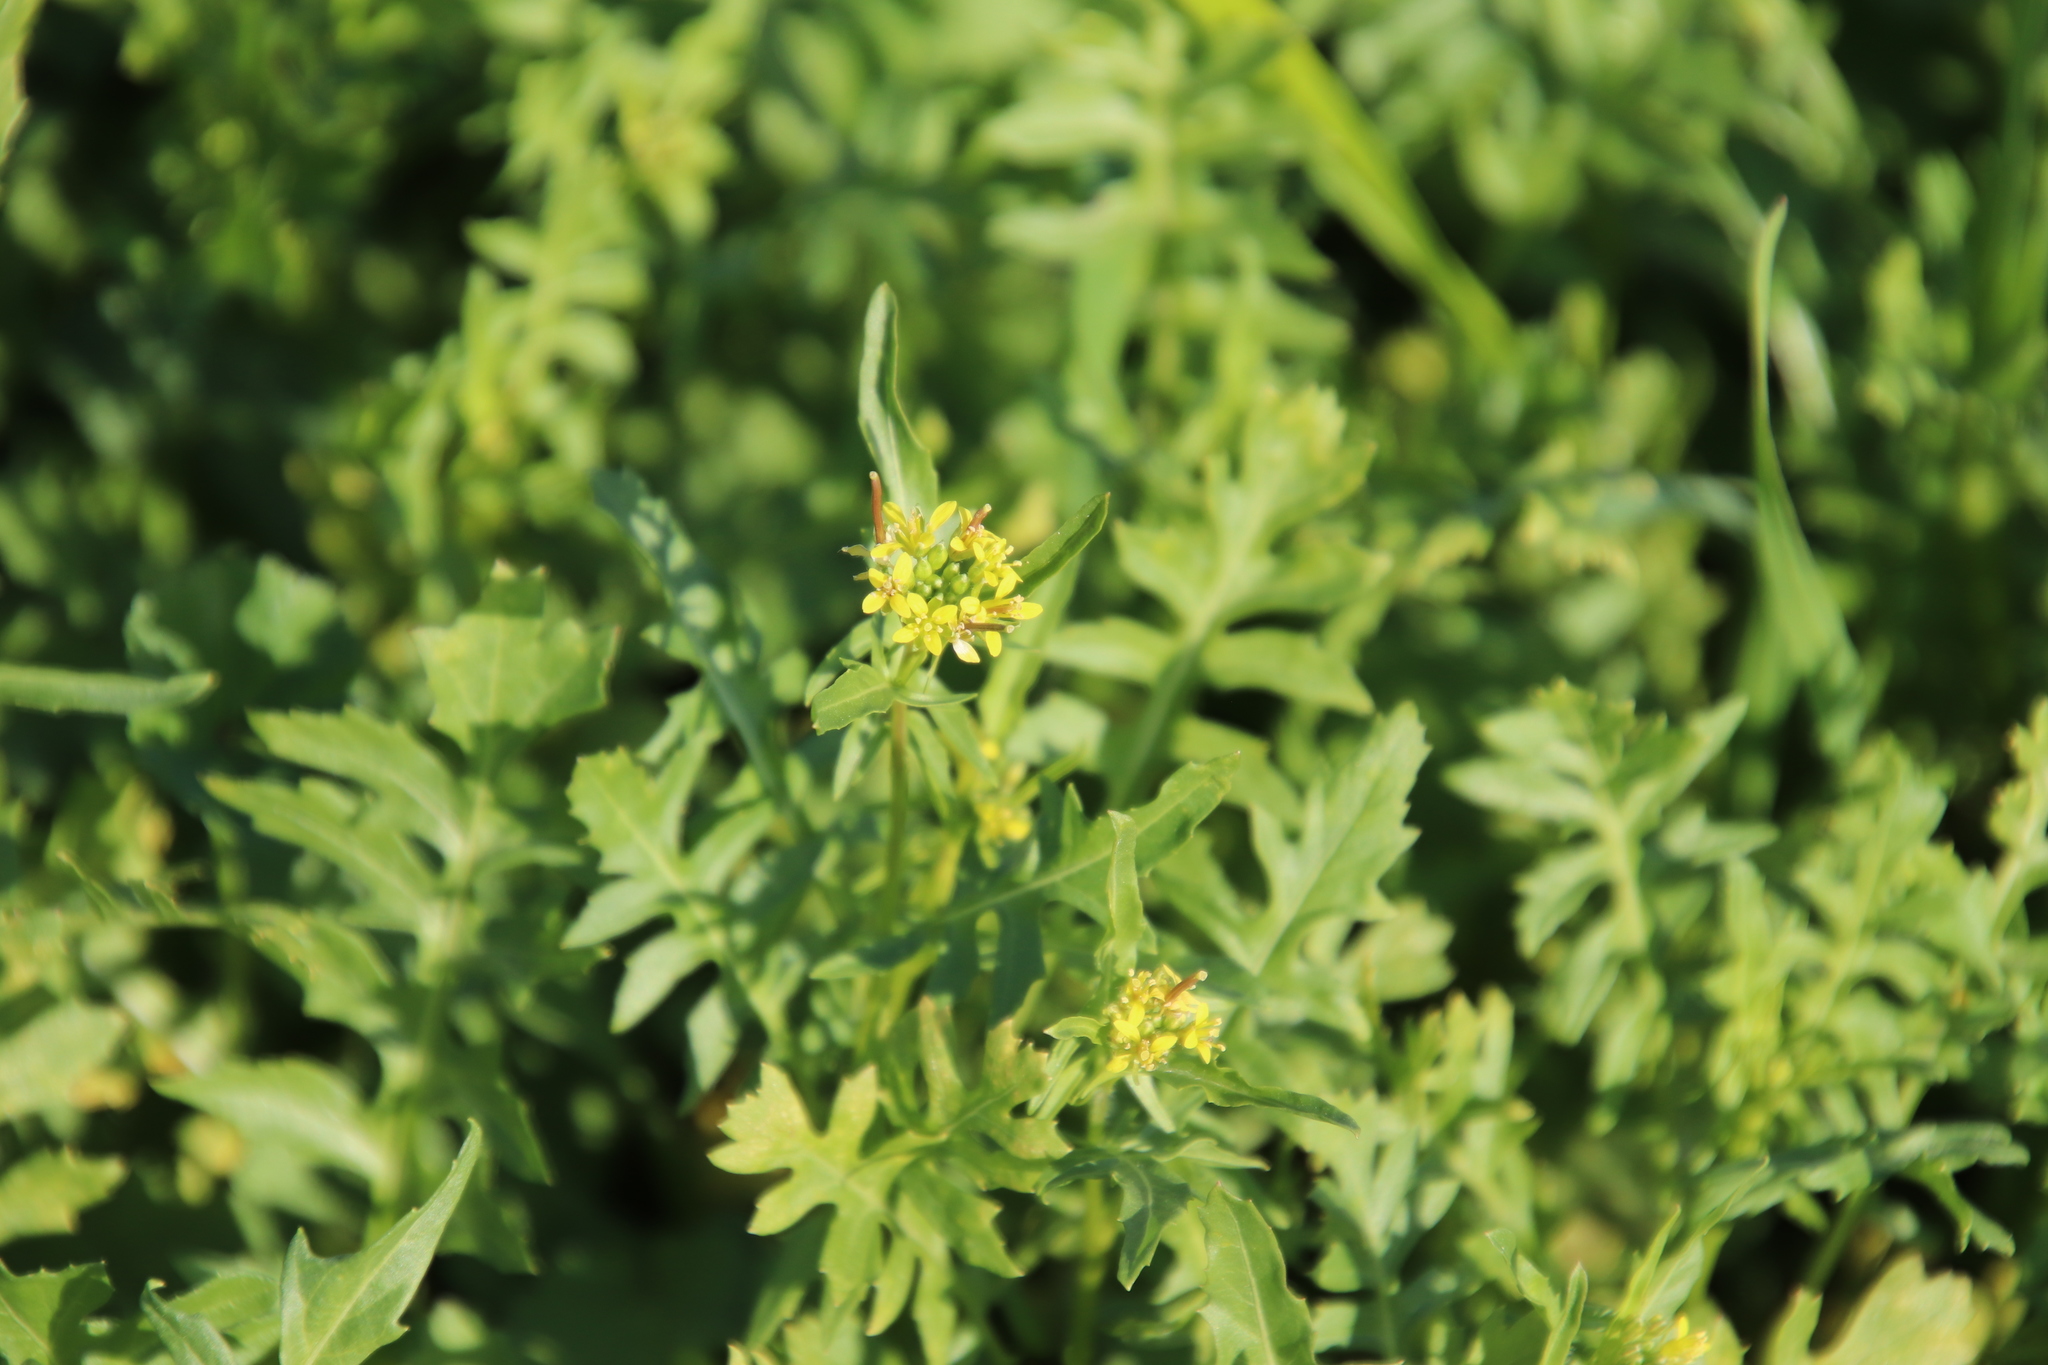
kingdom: Plantae
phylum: Tracheophyta
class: Magnoliopsida
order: Brassicales
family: Brassicaceae
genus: Sisymbrium
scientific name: Sisymbrium irio
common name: London rocket
